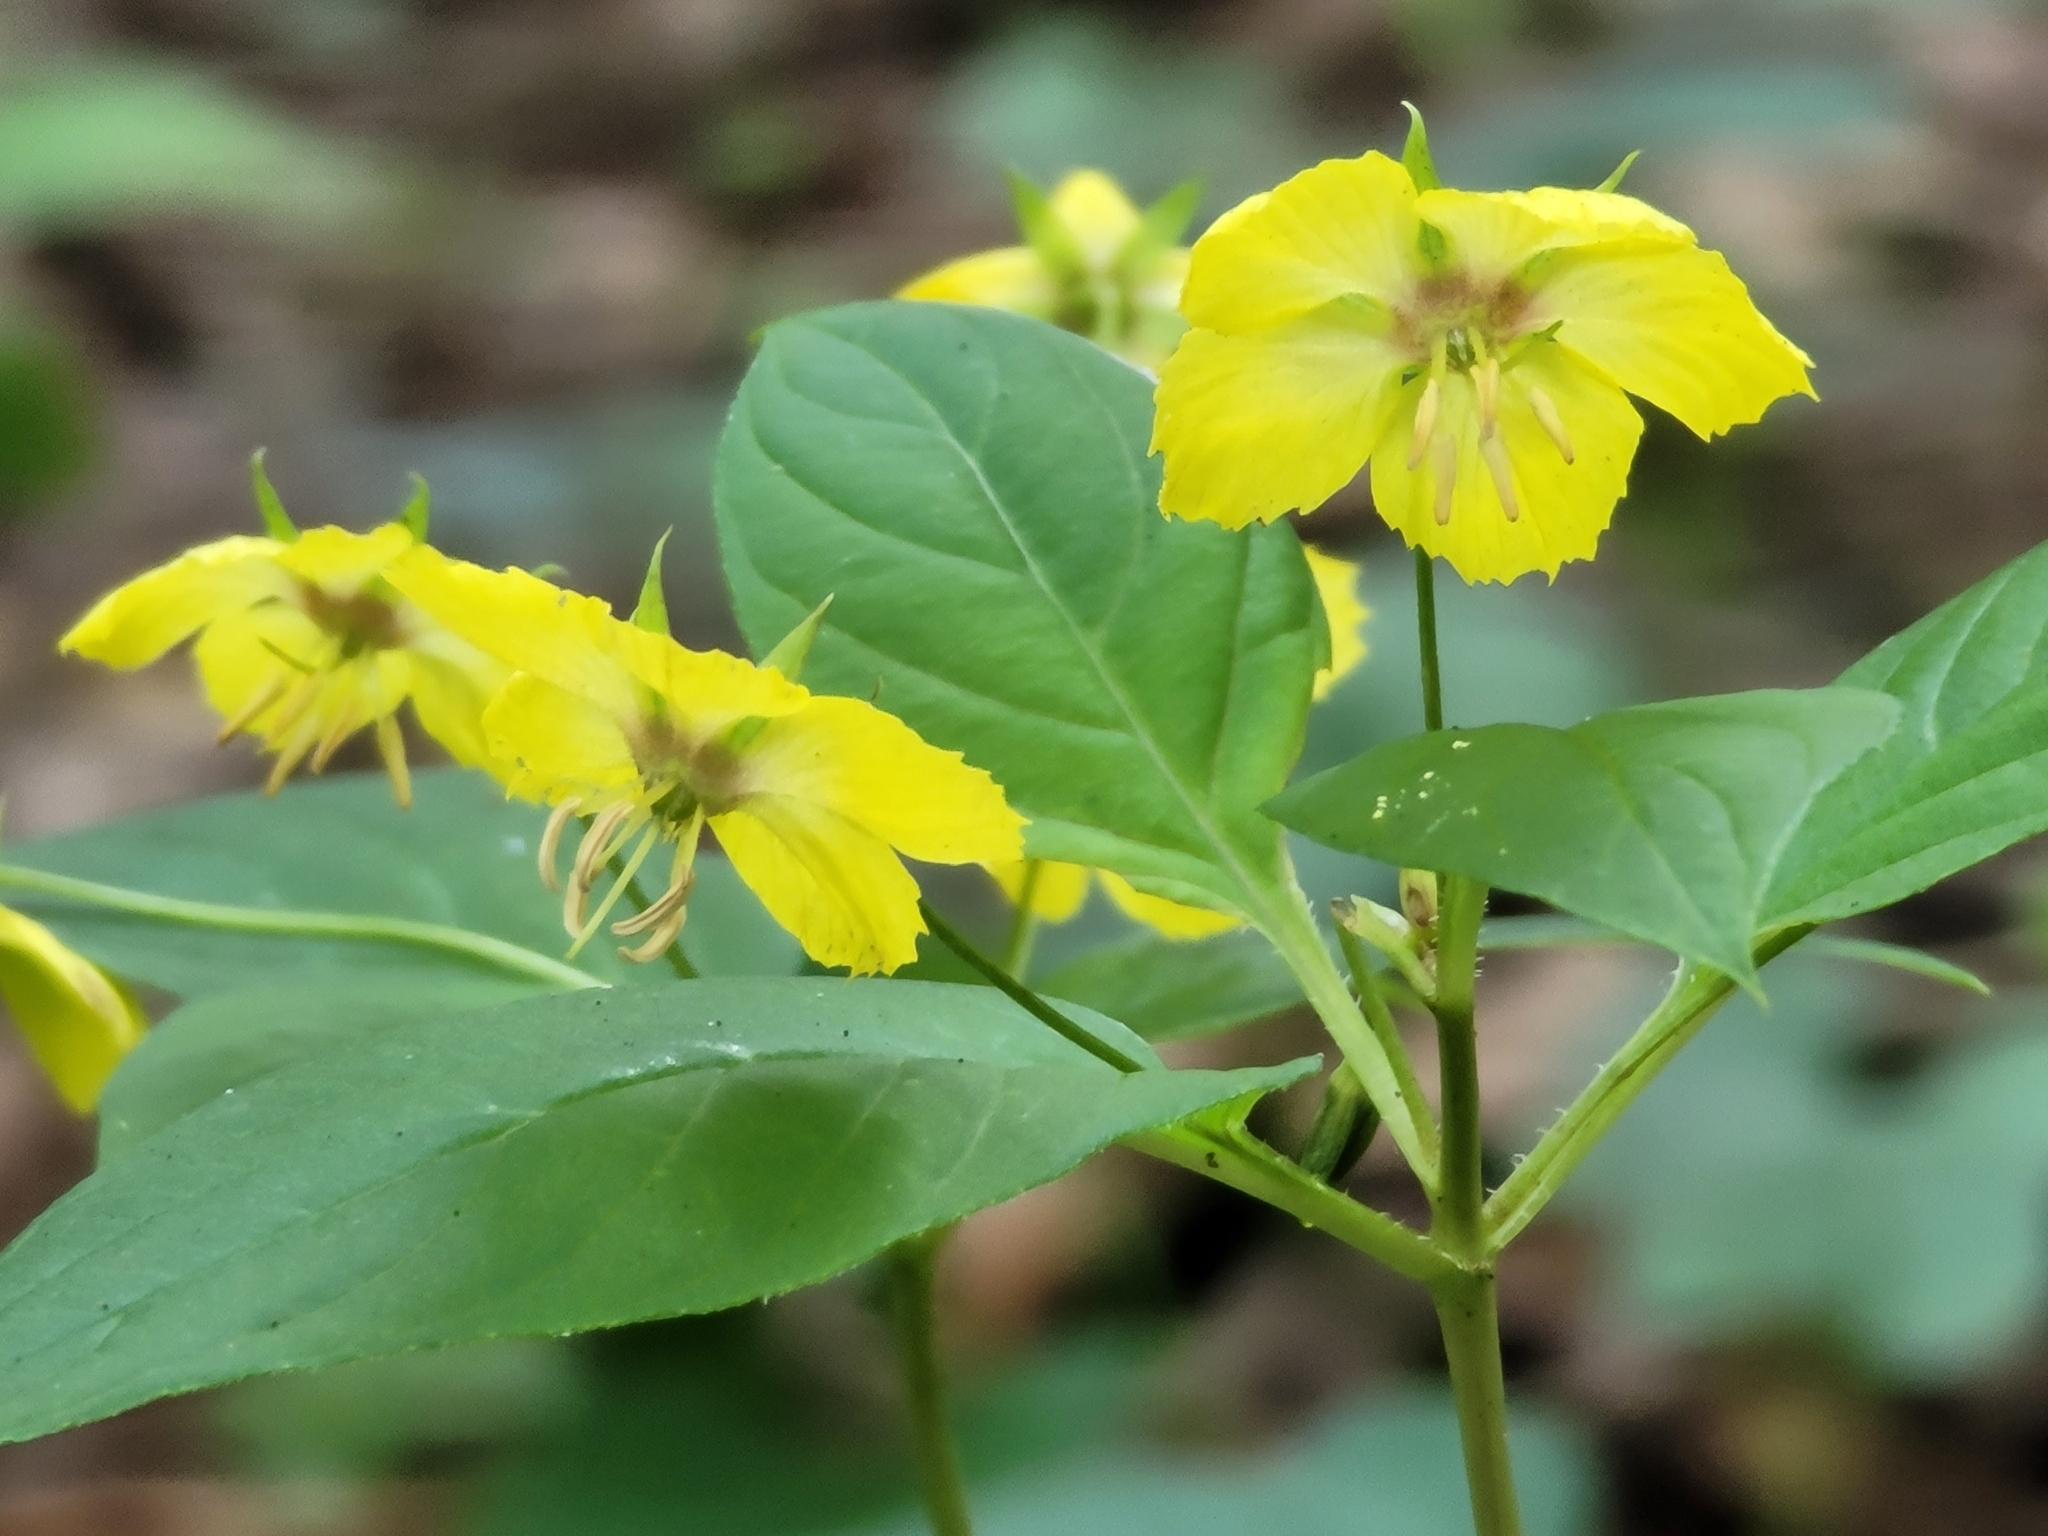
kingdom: Plantae
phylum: Tracheophyta
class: Magnoliopsida
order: Ericales
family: Primulaceae
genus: Lysimachia
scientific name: Lysimachia ciliata
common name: Fringed loosestrife
